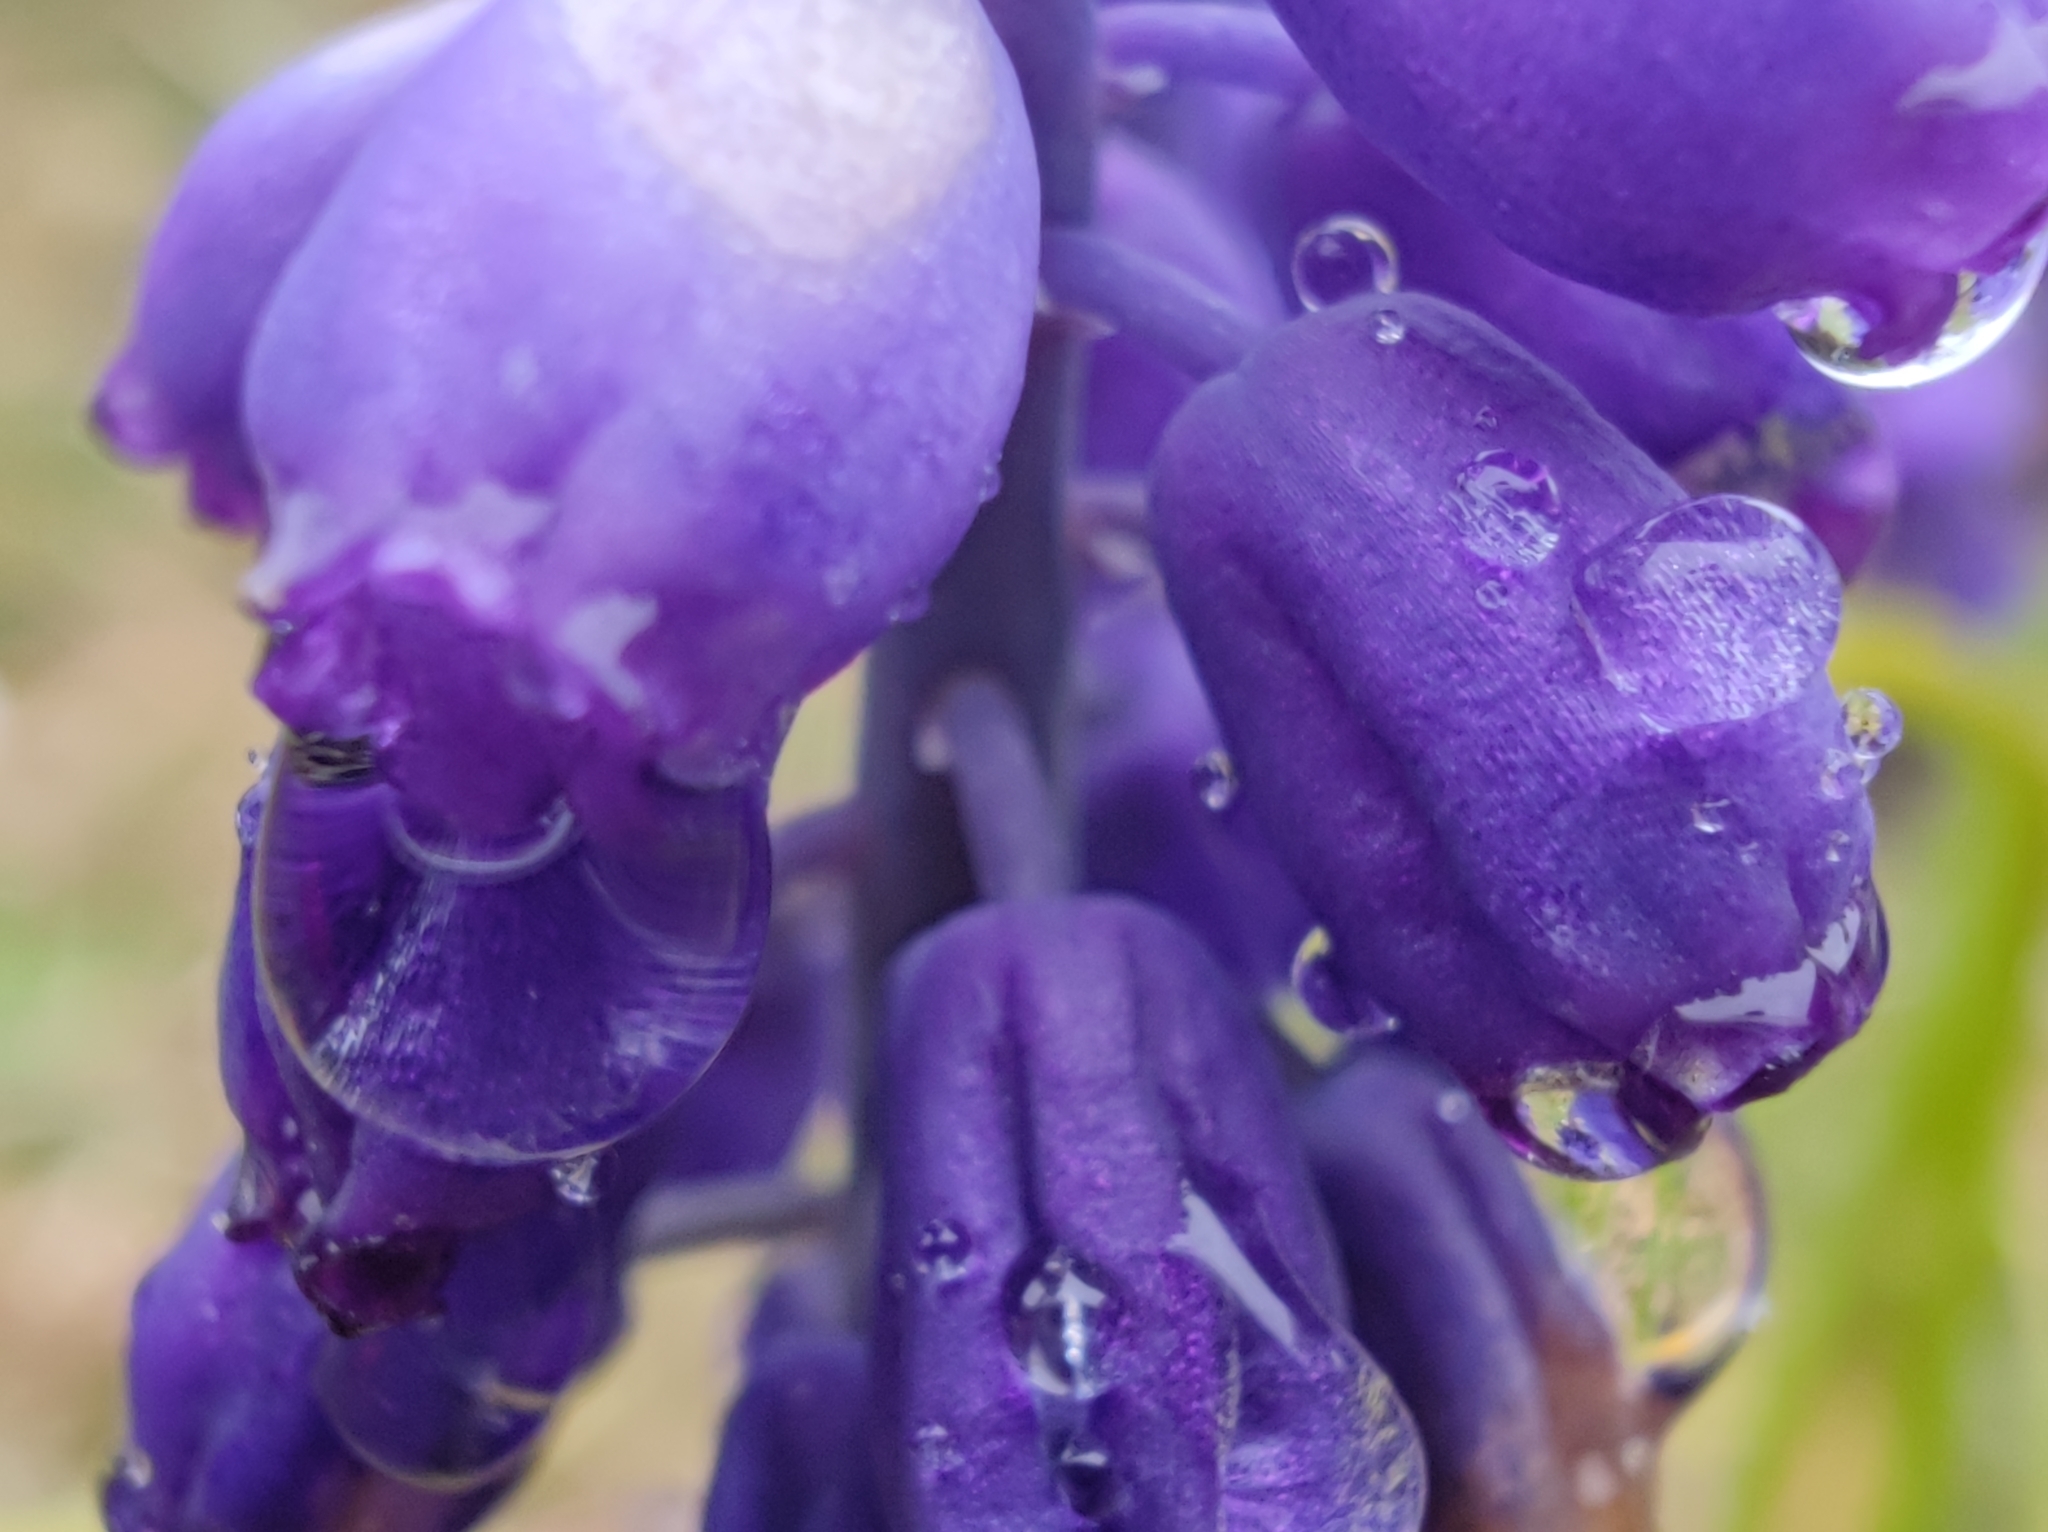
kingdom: Plantae
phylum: Tracheophyta
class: Liliopsida
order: Asparagales
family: Asparagaceae
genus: Muscari
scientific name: Muscari neglectum
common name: Grape-hyacinth
